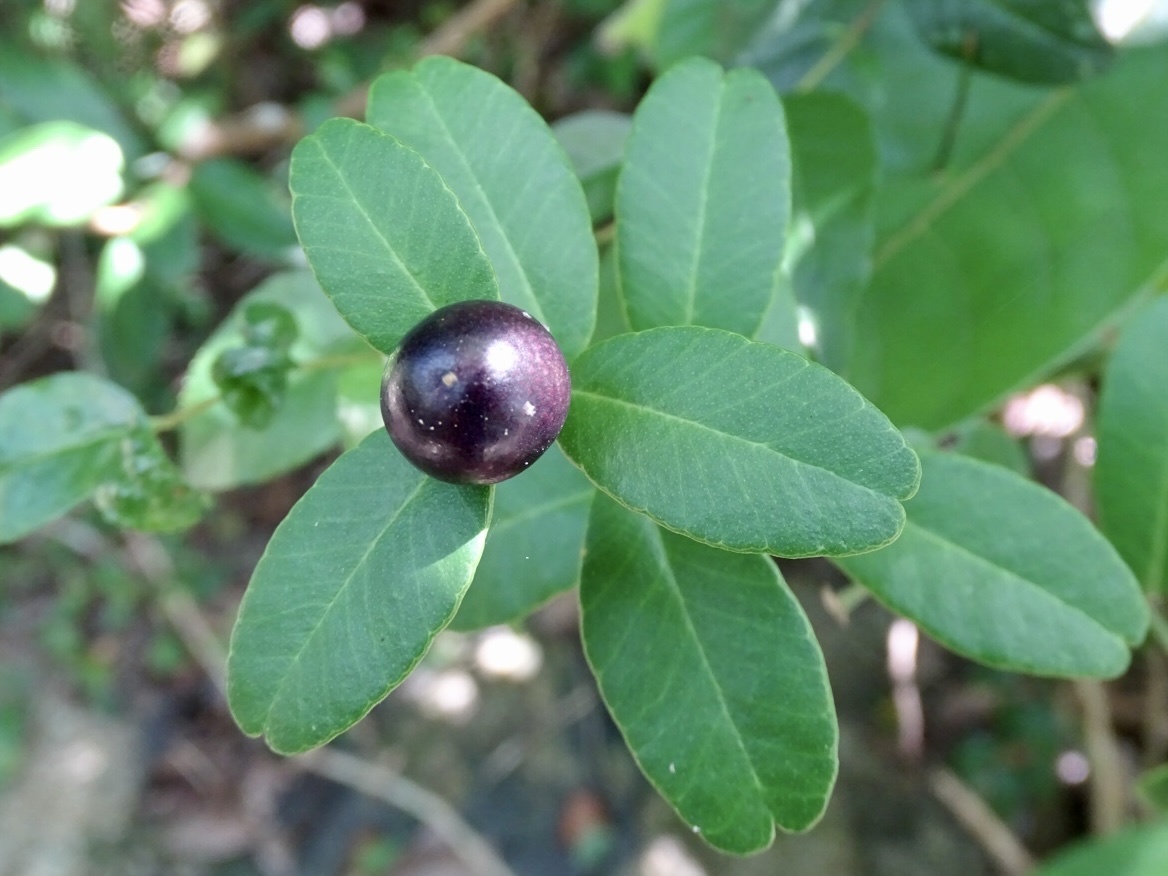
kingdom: Plantae
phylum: Tracheophyta
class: Magnoliopsida
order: Sapindales
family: Rutaceae
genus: Atalantia
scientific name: Atalantia buxifolia
